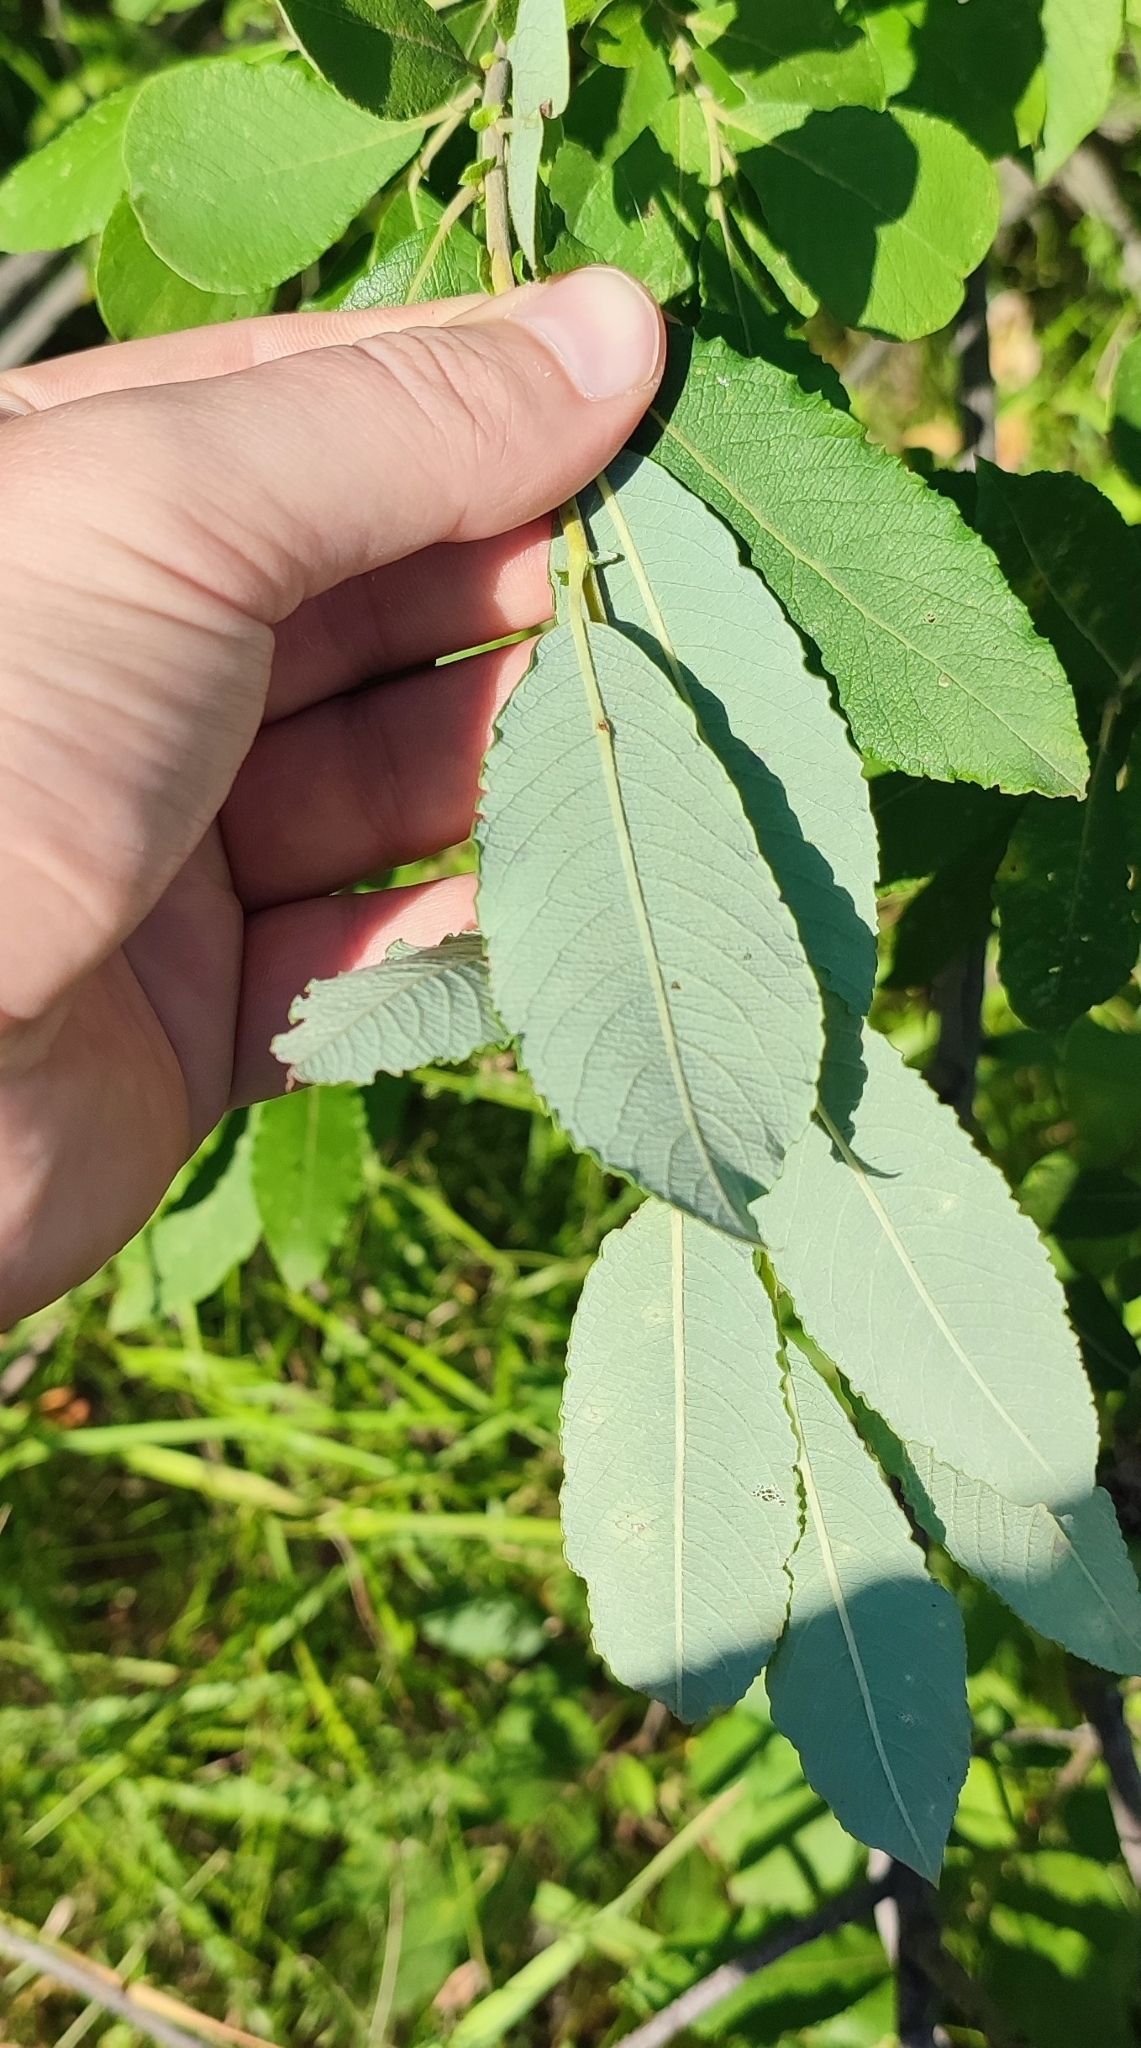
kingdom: Plantae
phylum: Tracheophyta
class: Magnoliopsida
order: Malpighiales
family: Salicaceae
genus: Salix
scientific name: Salix cinerea
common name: Common sallow
